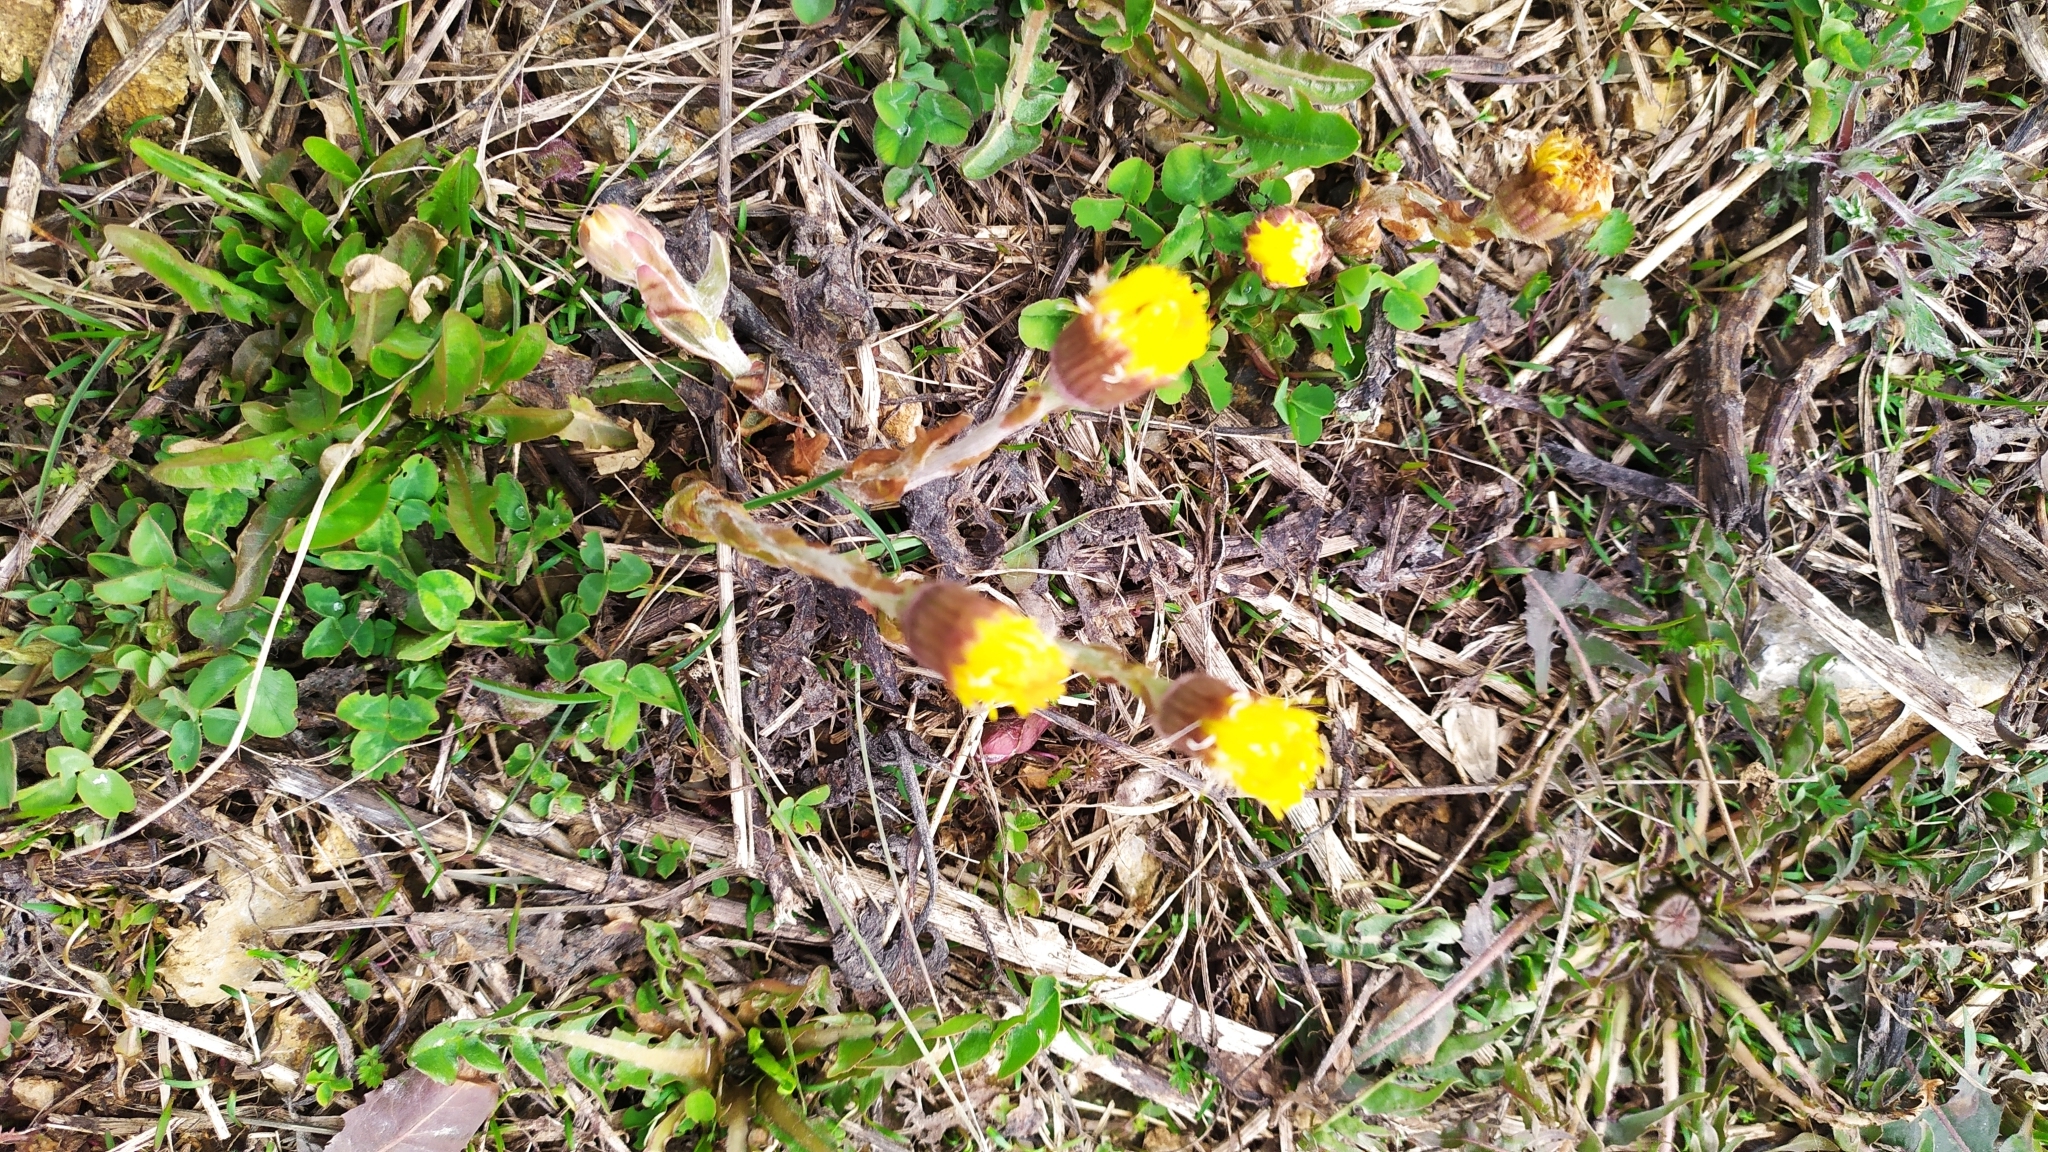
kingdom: Plantae
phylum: Tracheophyta
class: Magnoliopsida
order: Asterales
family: Asteraceae
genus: Tussilago
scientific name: Tussilago farfara
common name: Coltsfoot
